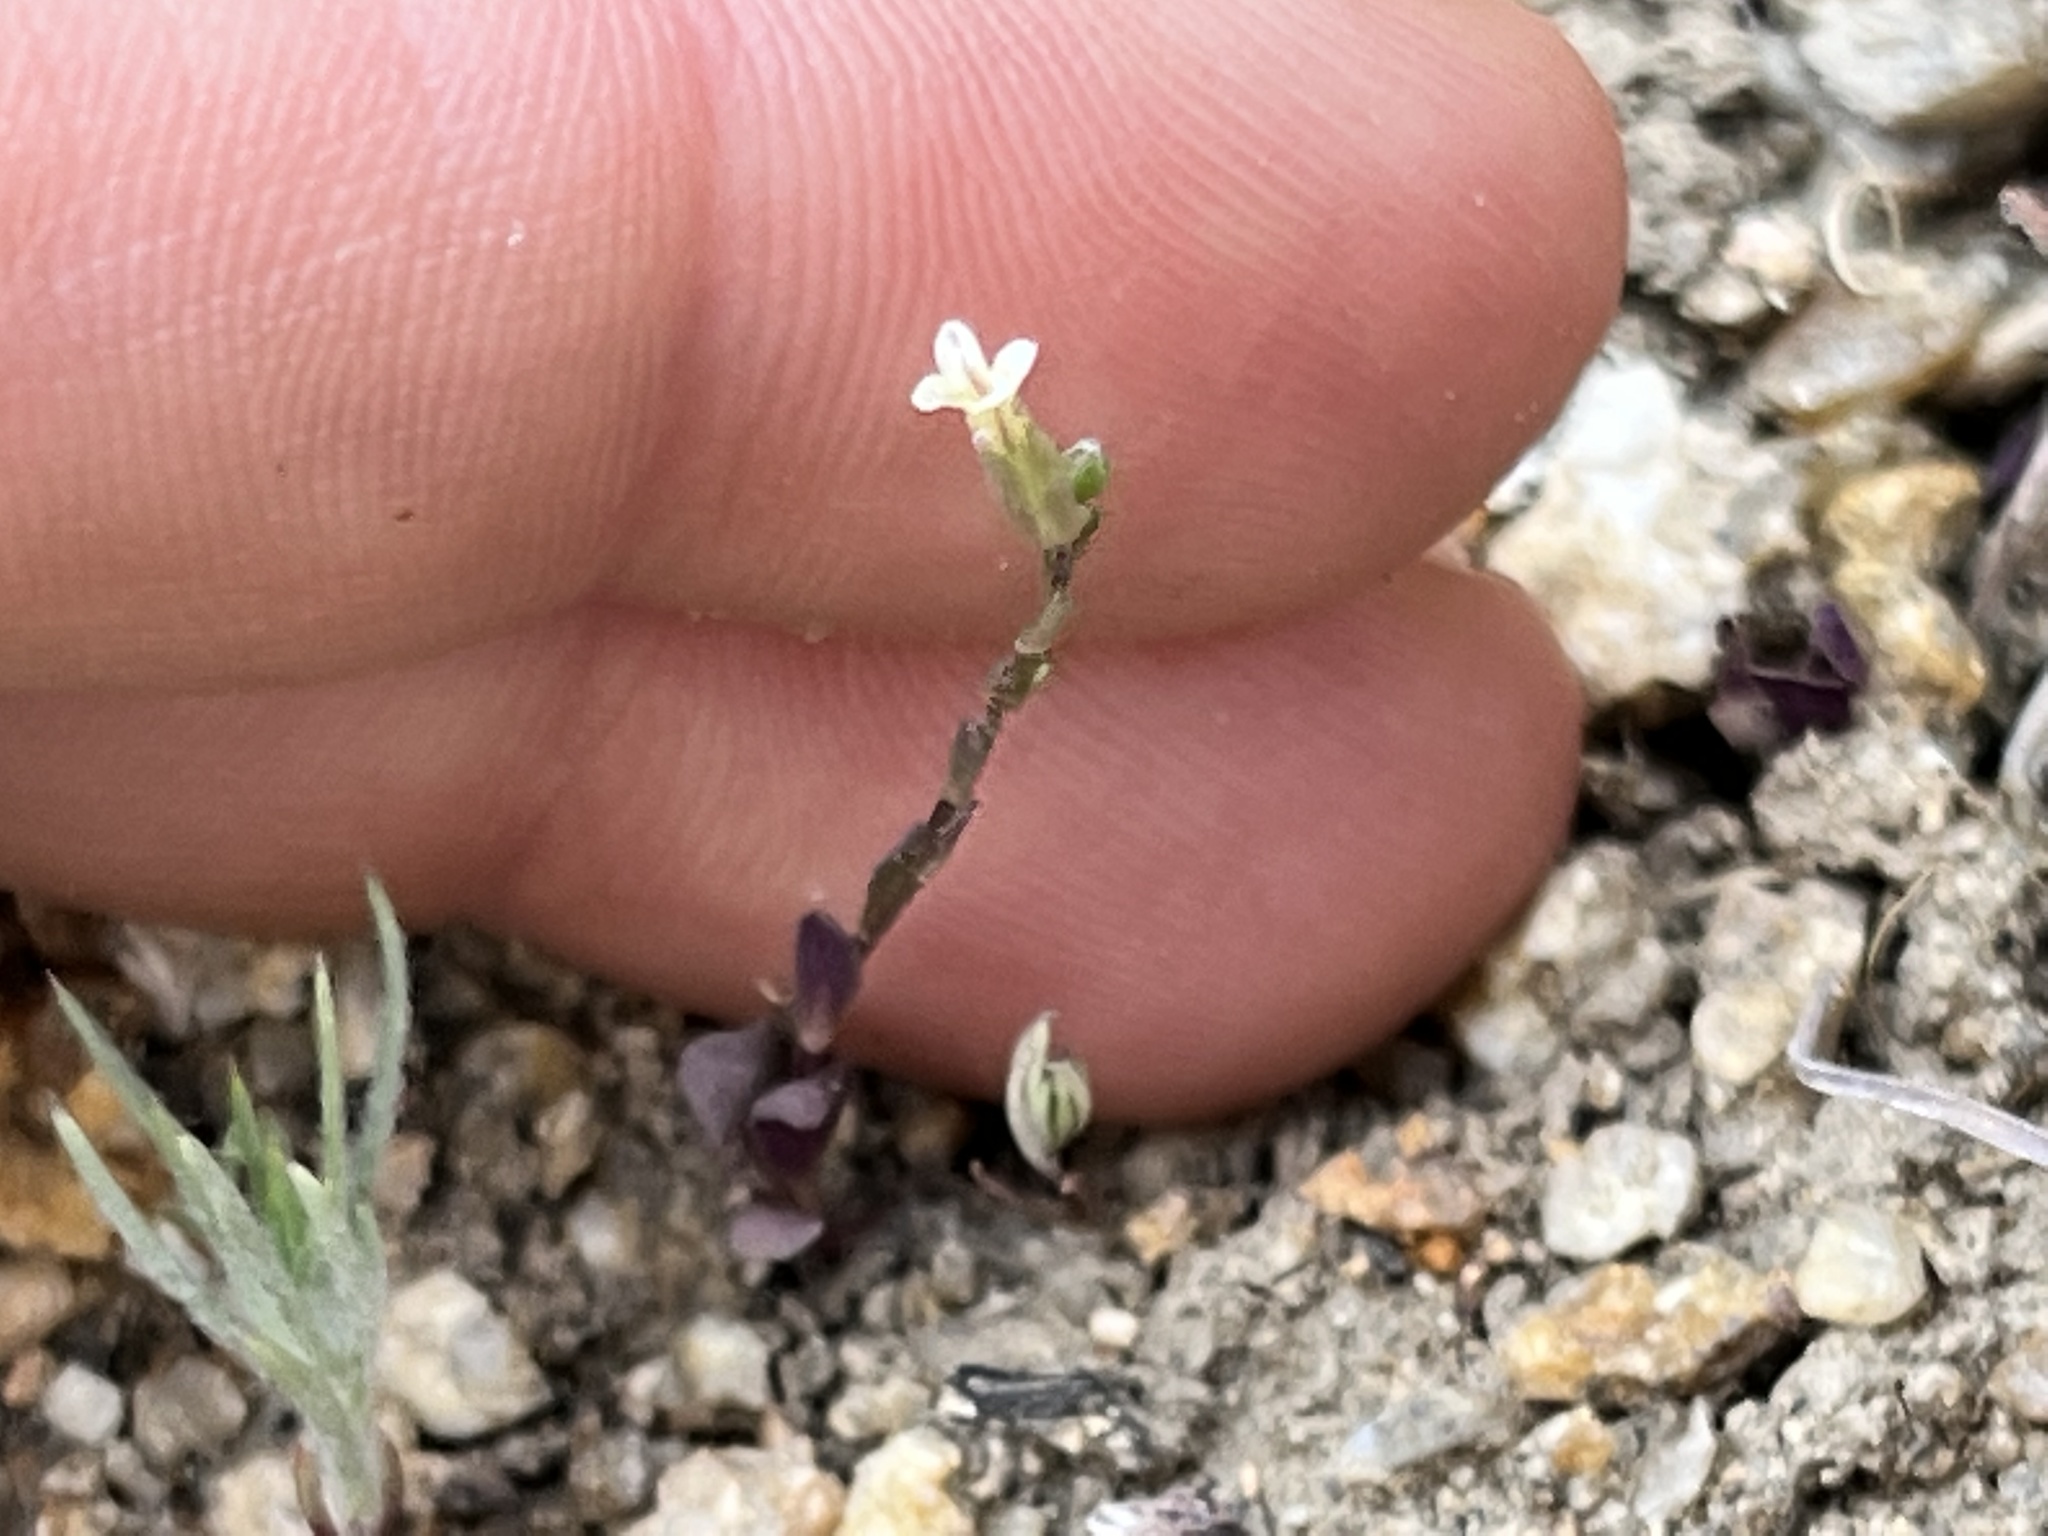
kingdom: Plantae
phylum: Tracheophyta
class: Magnoliopsida
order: Brassicales
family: Brassicaceae
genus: Streptanthus
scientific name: Streptanthus cooperi
